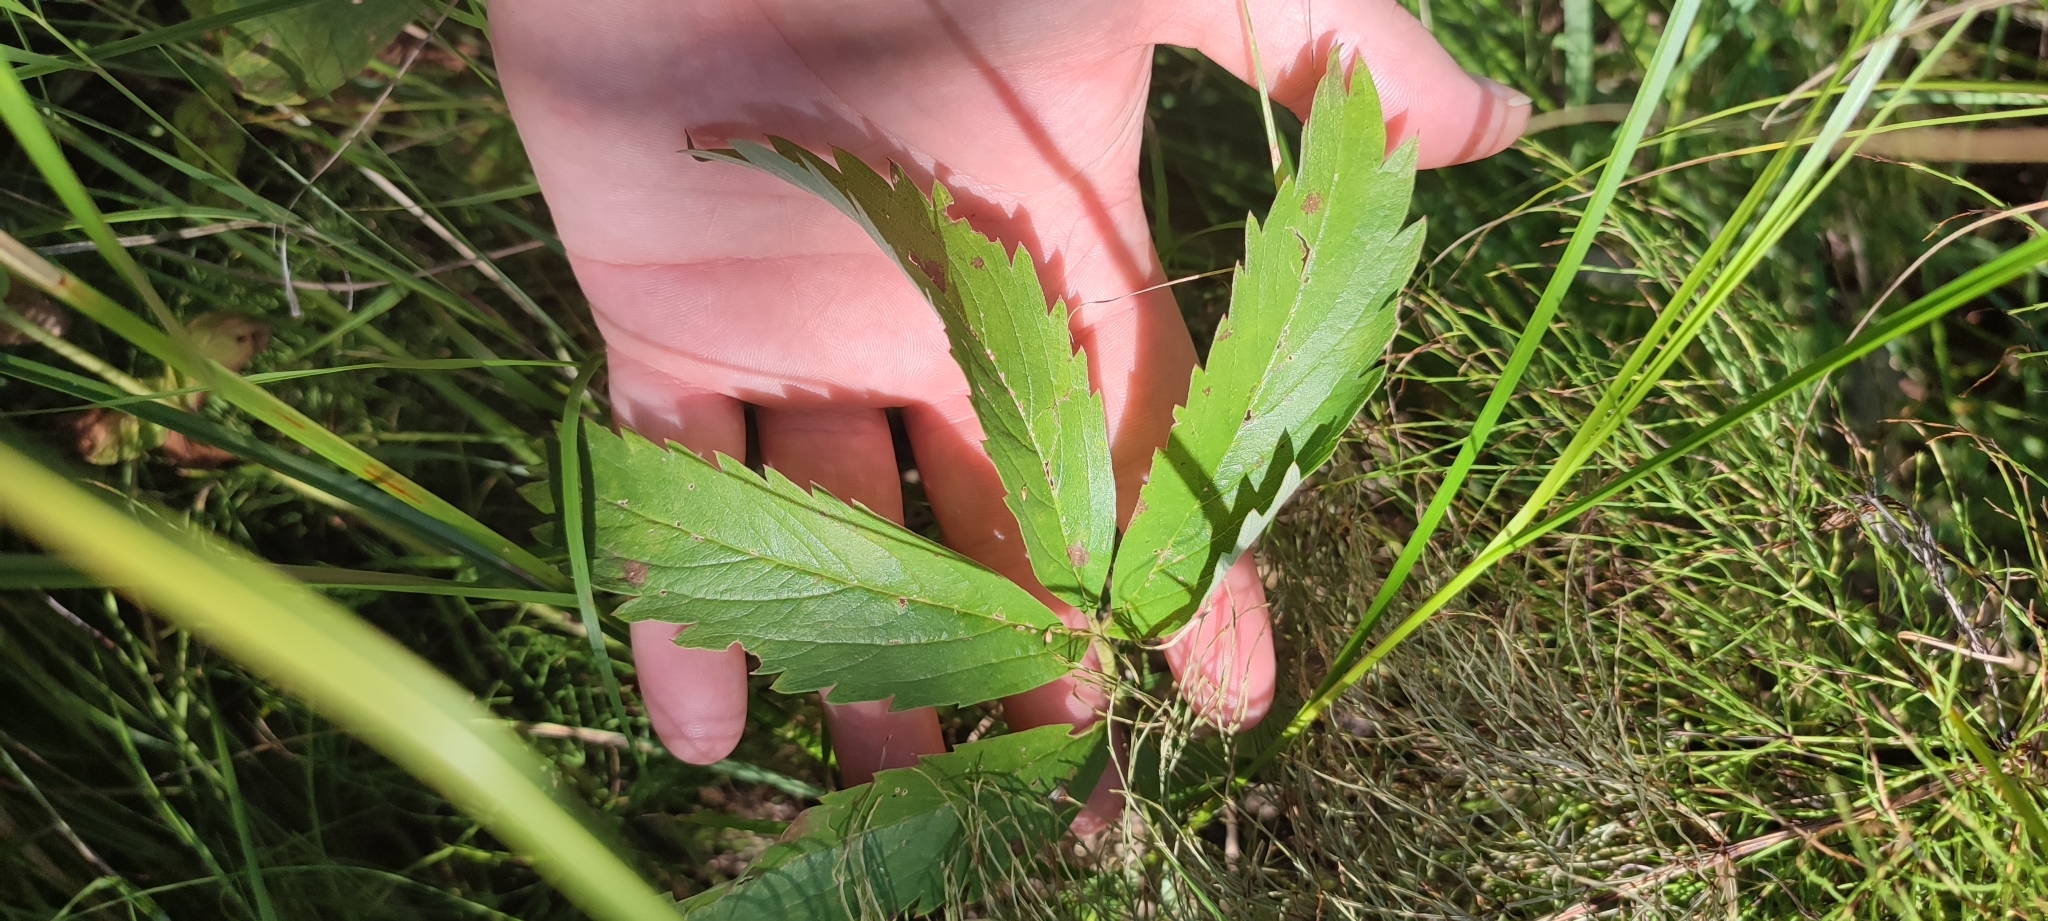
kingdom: Plantae
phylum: Tracheophyta
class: Magnoliopsida
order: Rosales
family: Rosaceae
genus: Comarum
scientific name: Comarum palustre
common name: Marsh cinquefoil
